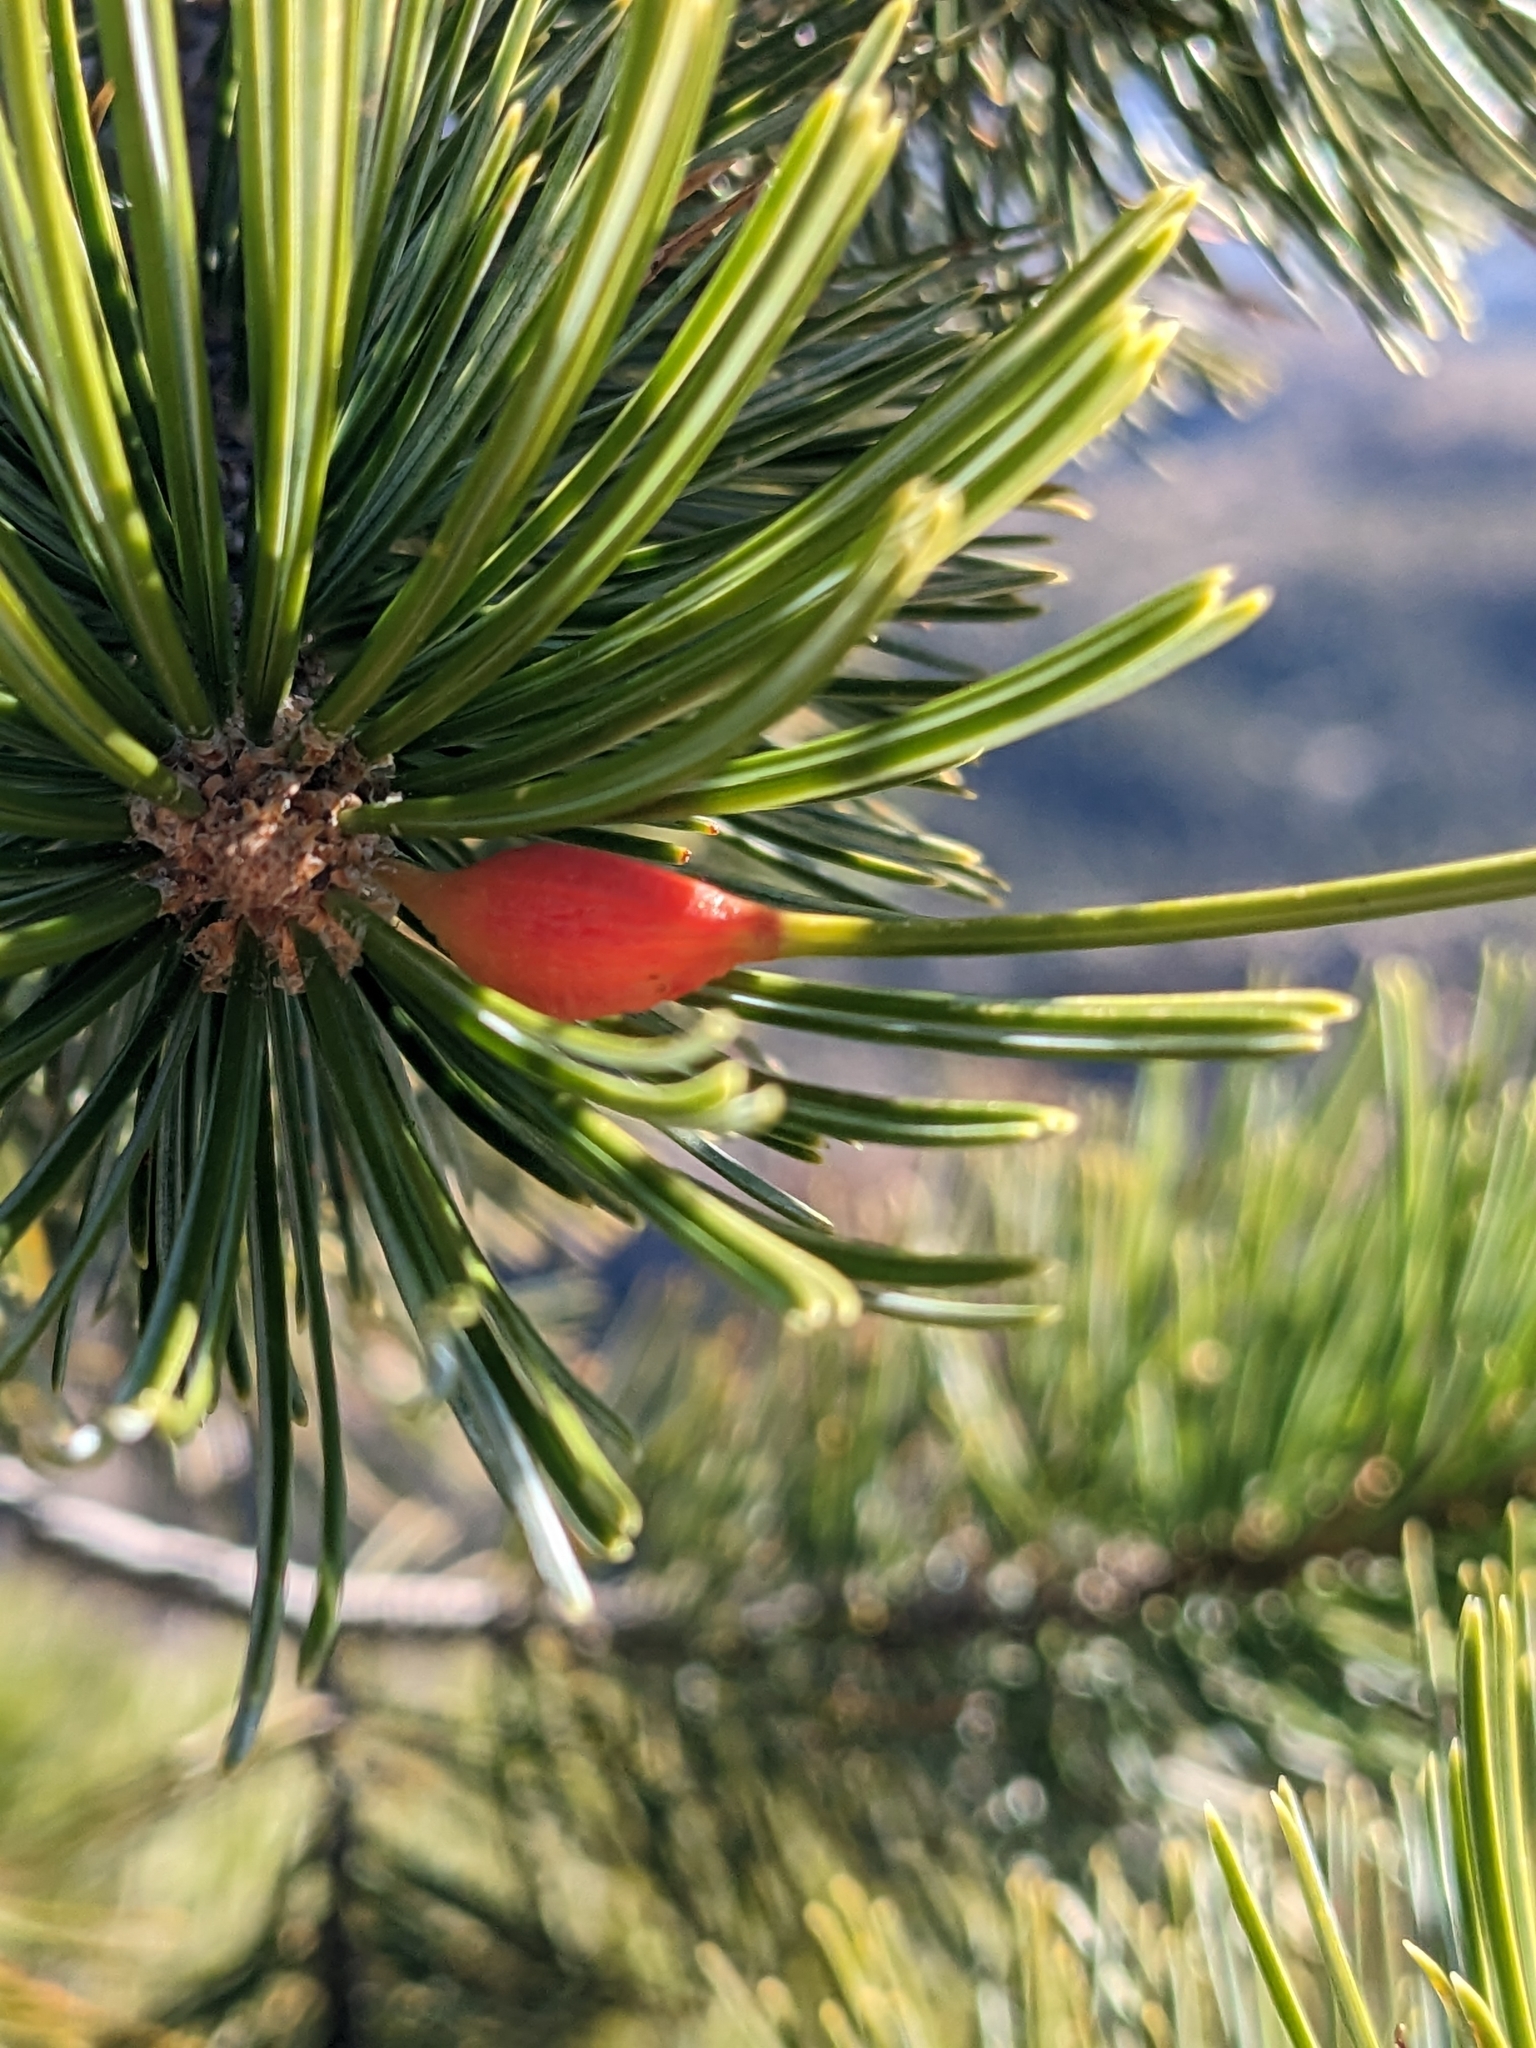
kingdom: Animalia
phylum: Arthropoda
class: Insecta
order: Diptera
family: Cecidomyiidae
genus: Pinyonia
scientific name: Pinyonia edulicola
